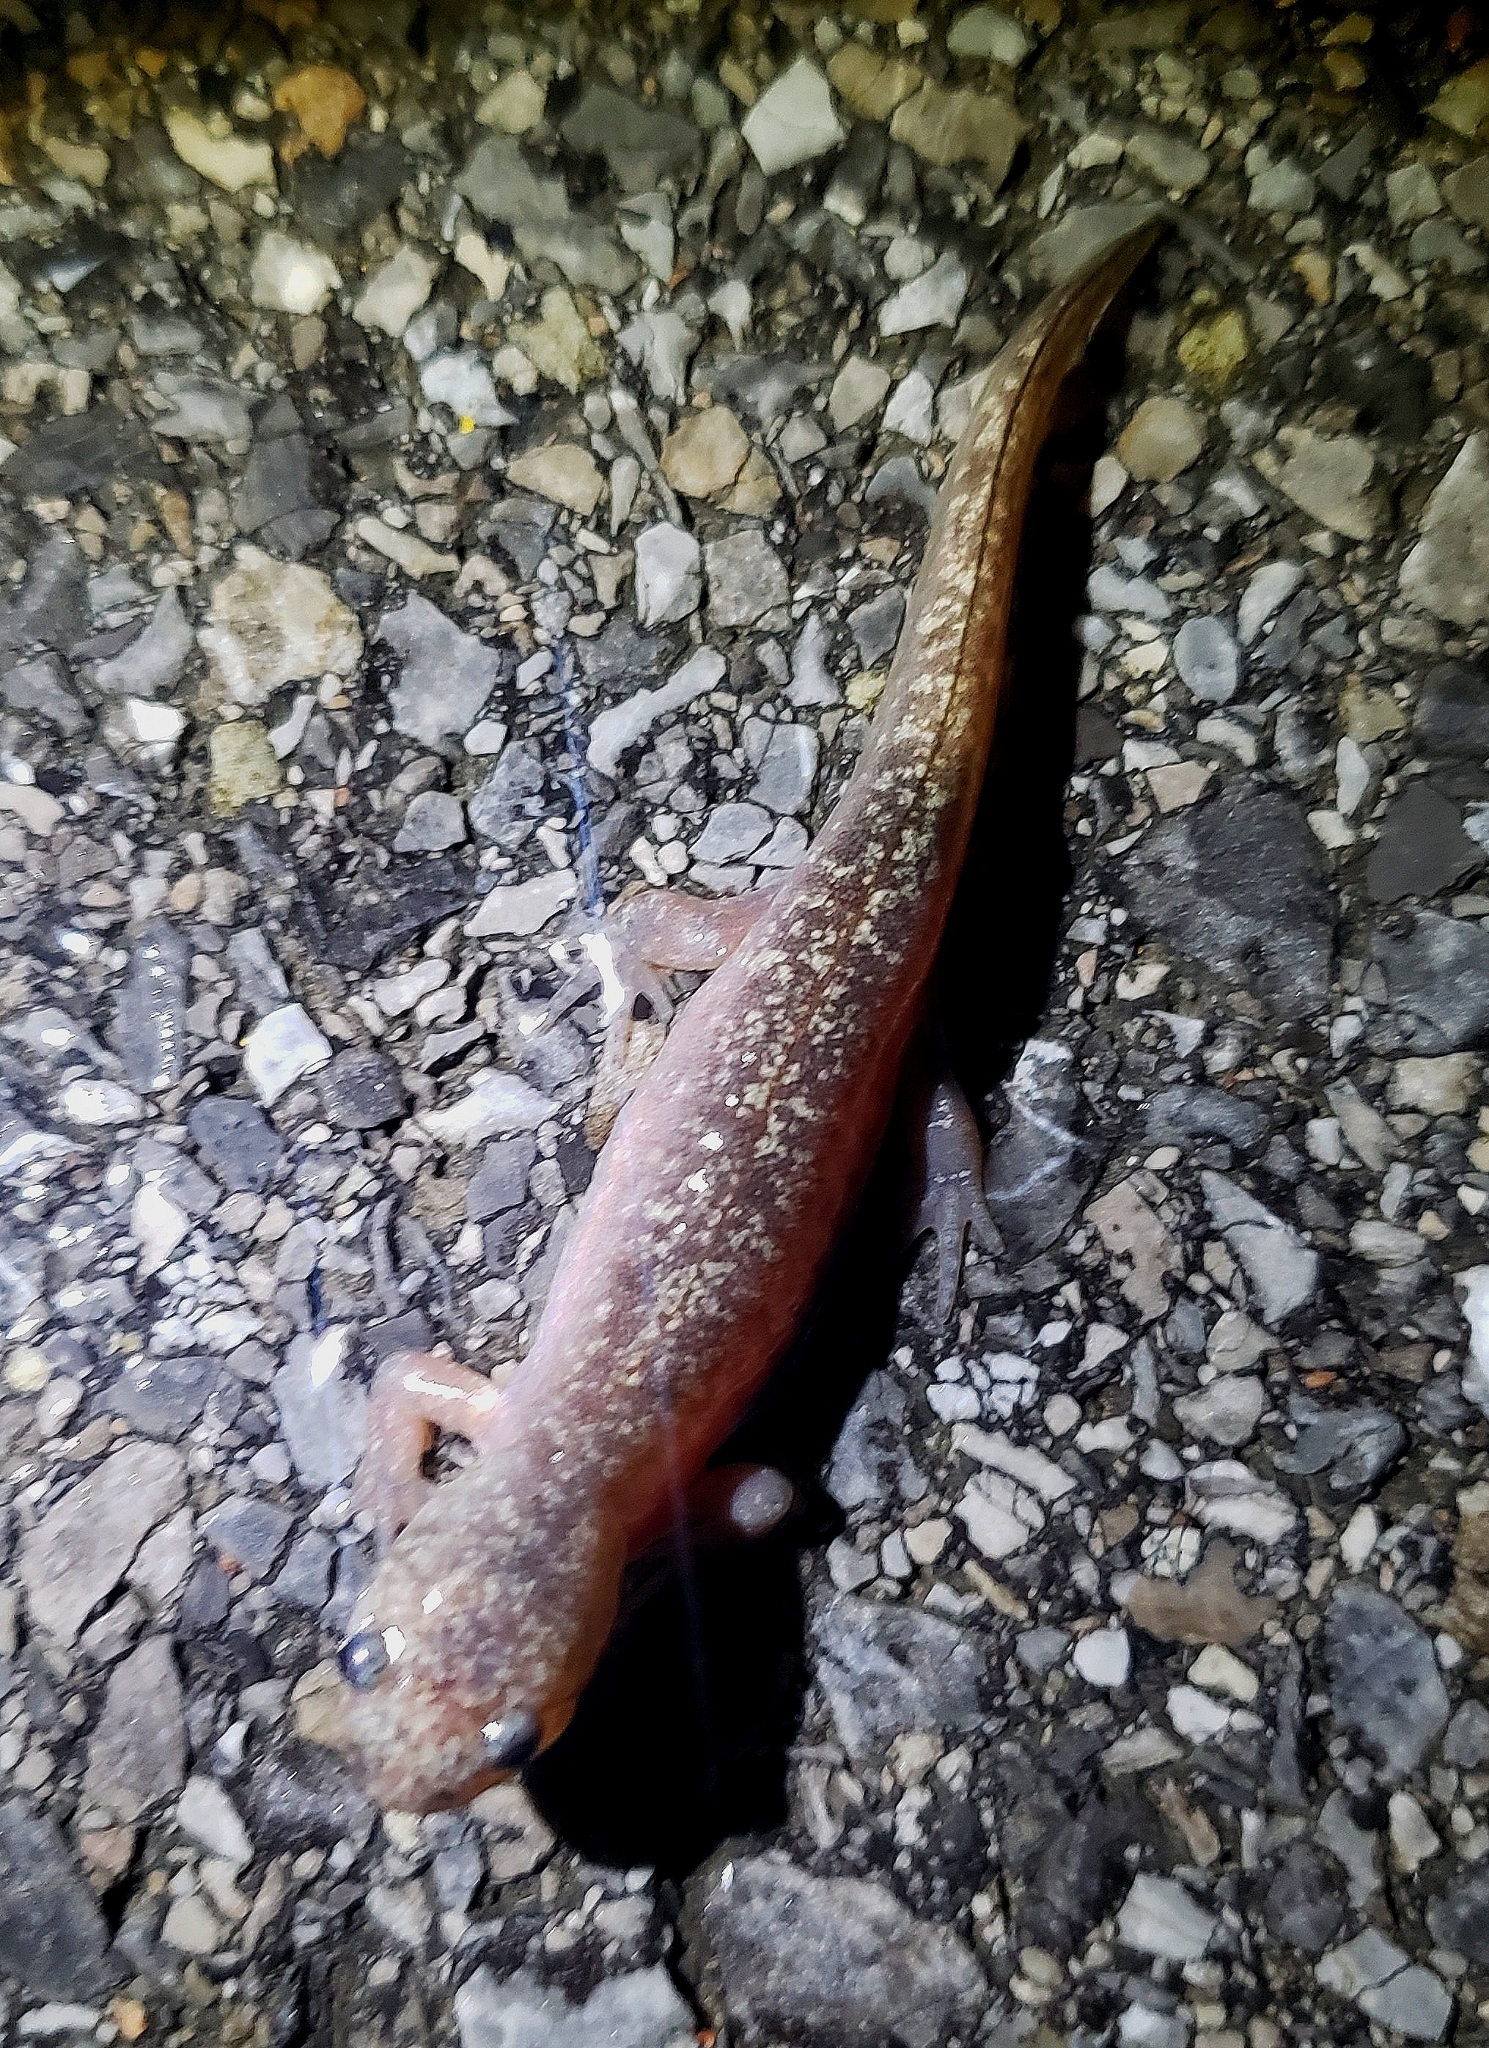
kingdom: Animalia
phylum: Chordata
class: Amphibia
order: Caudata
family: Ambystomatidae
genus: Ambystoma
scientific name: Ambystoma opacum
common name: Marbled salamander
